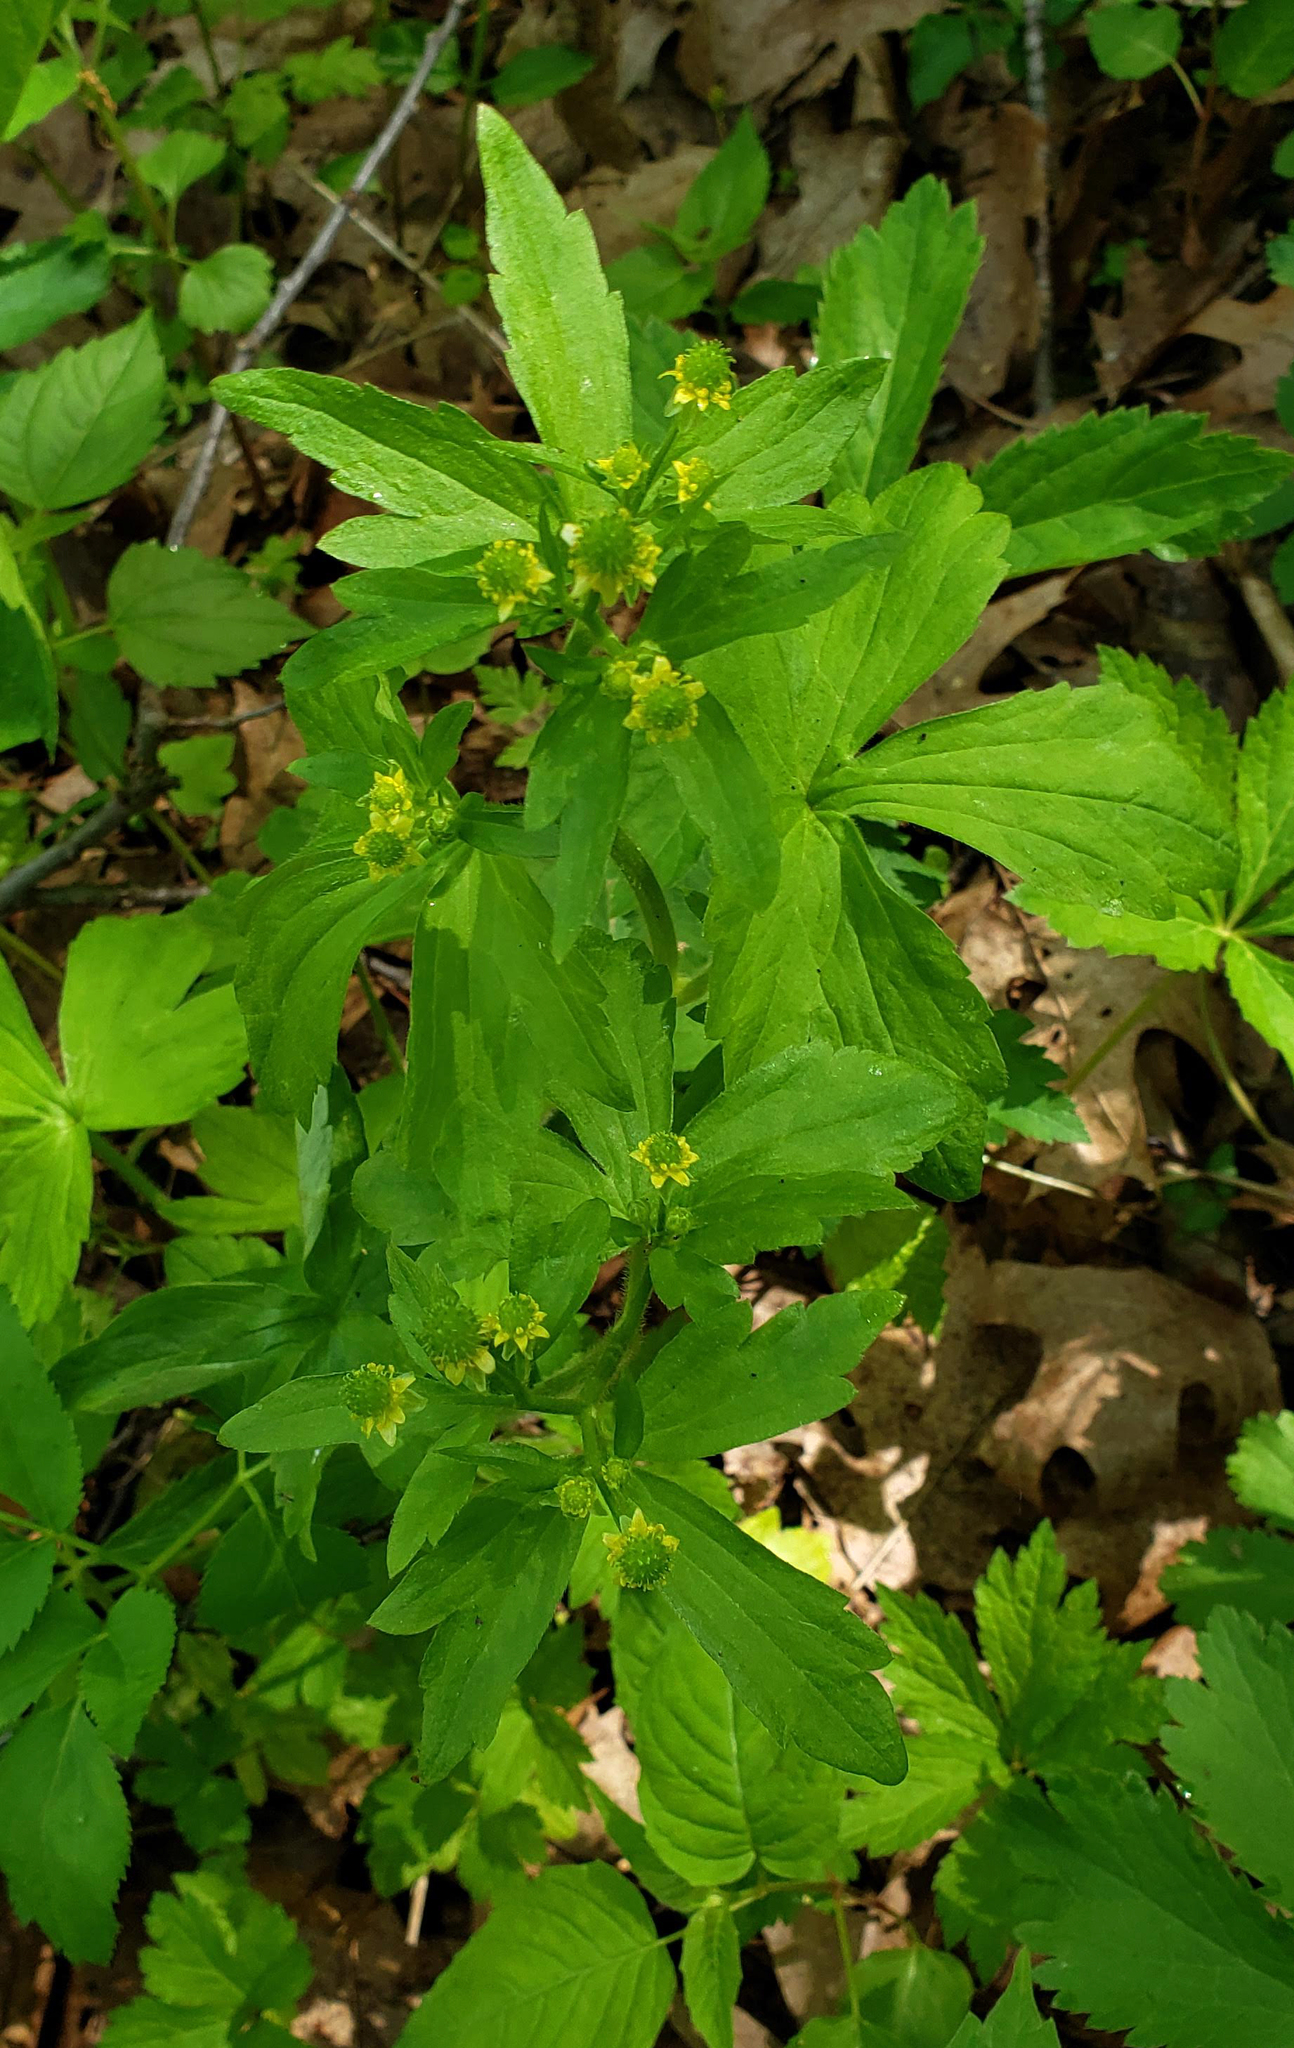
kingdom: Plantae
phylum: Tracheophyta
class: Magnoliopsida
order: Ranunculales
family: Ranunculaceae
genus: Ranunculus
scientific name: Ranunculus recurvatus
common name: Blisterwort
